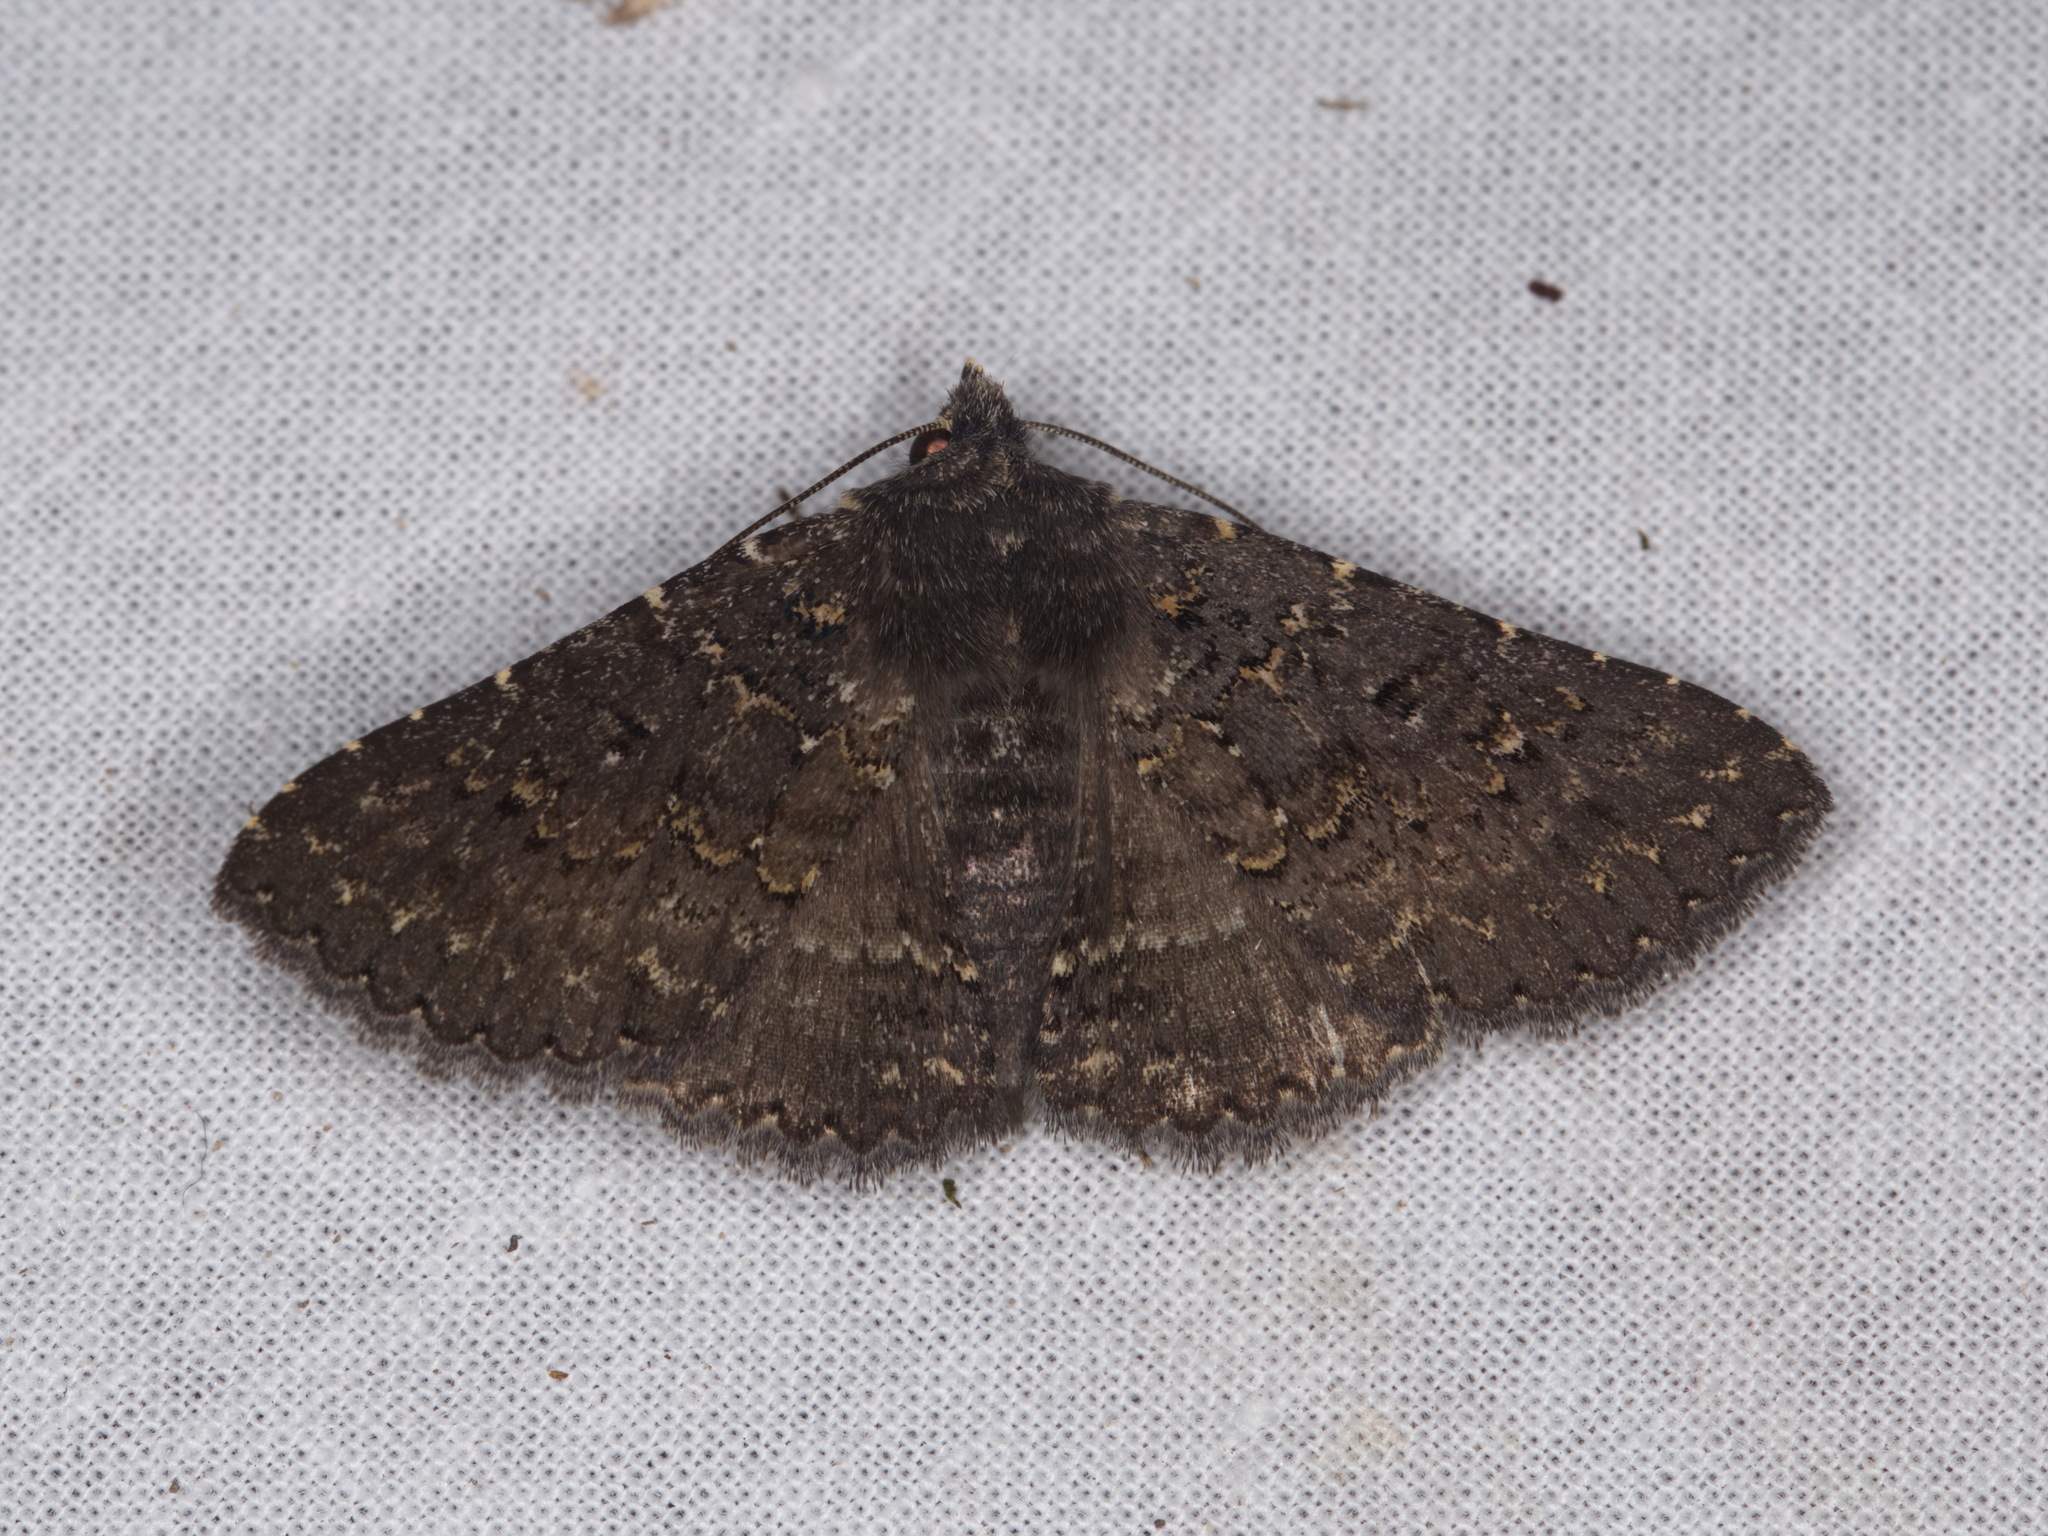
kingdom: Animalia
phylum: Arthropoda
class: Insecta
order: Lepidoptera
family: Erebidae
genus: Praxis
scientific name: Praxis edwardsii
